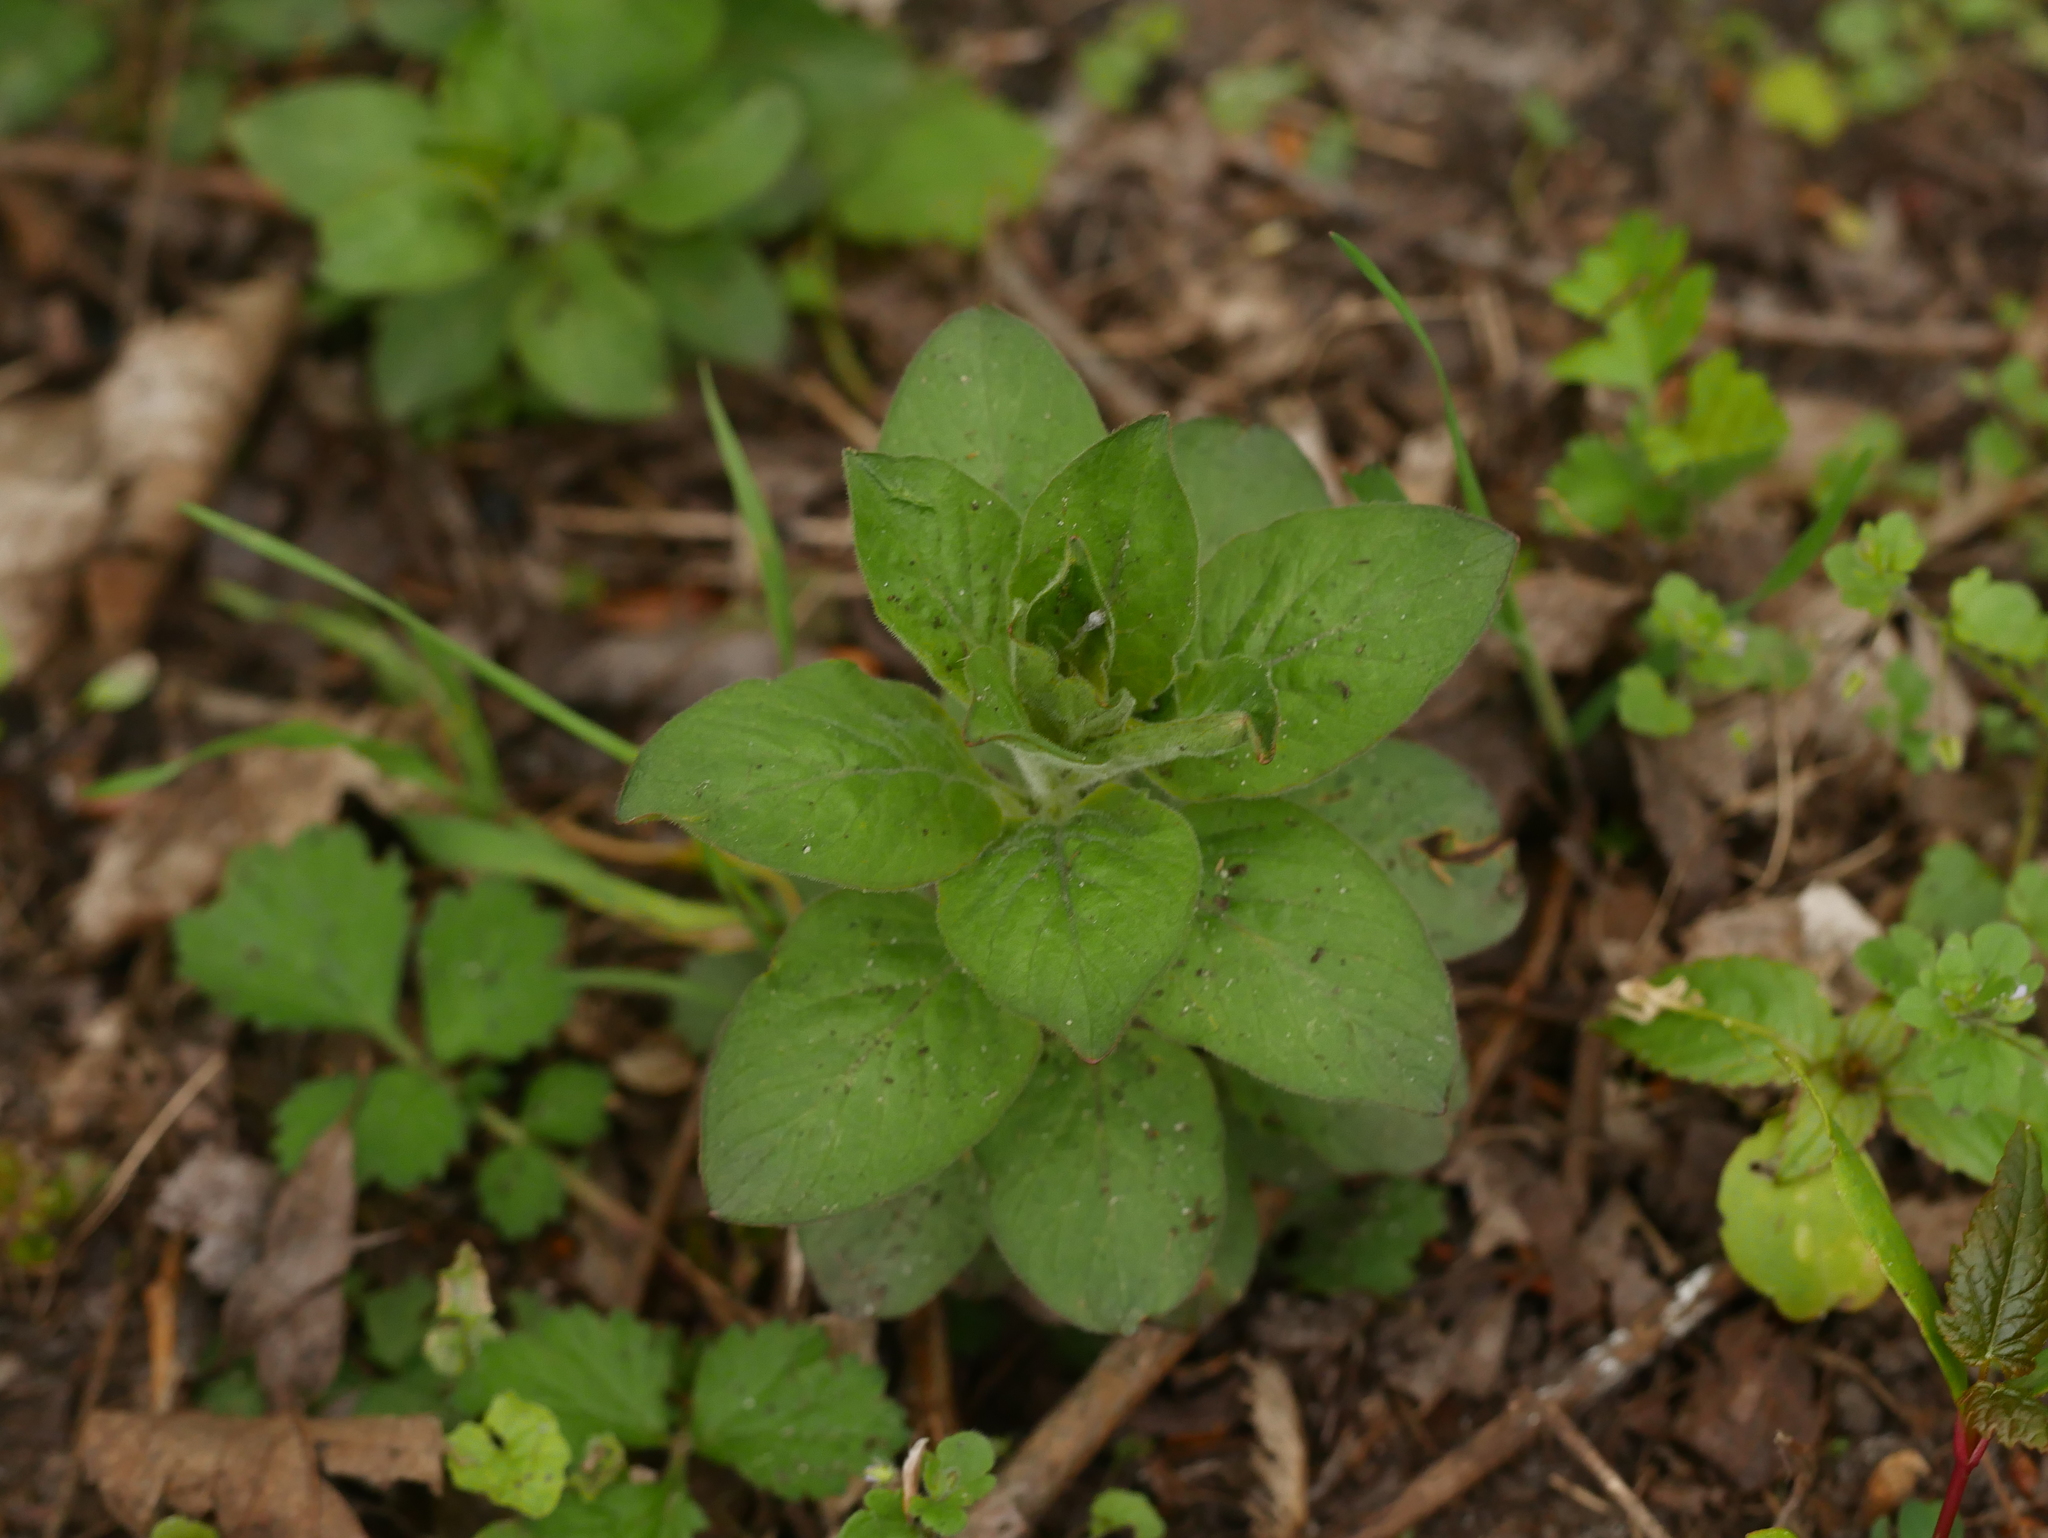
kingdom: Plantae
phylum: Tracheophyta
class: Magnoliopsida
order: Ericales
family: Primulaceae
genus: Lysimachia
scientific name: Lysimachia punctata
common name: Dotted loosestrife
